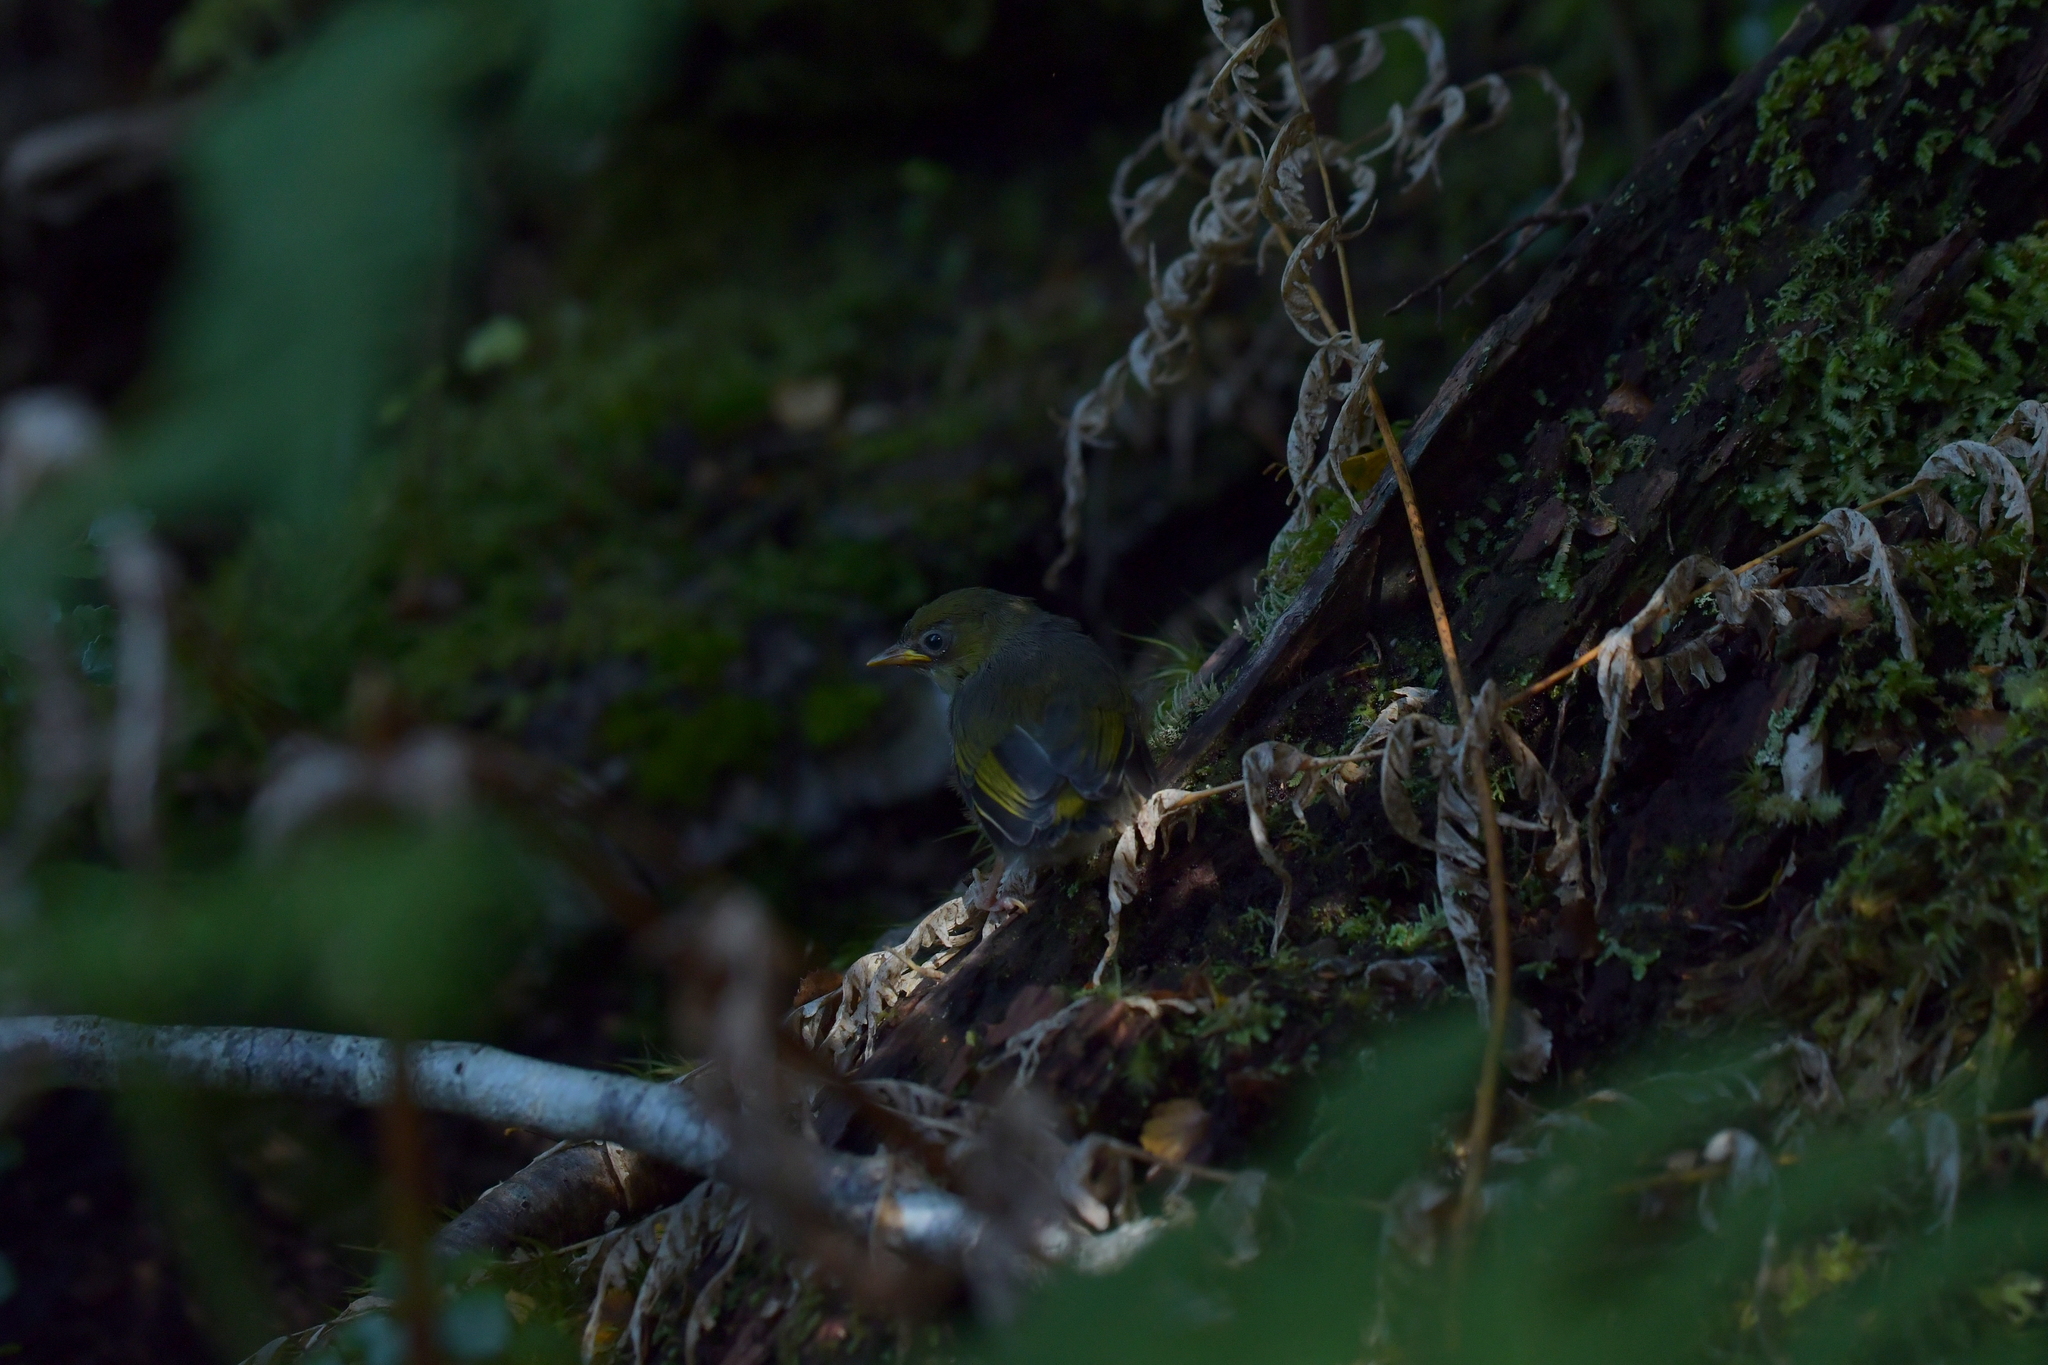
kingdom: Animalia
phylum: Chordata
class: Aves
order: Passeriformes
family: Zosteropidae
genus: Zosterops
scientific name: Zosterops lateralis
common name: Silvereye
